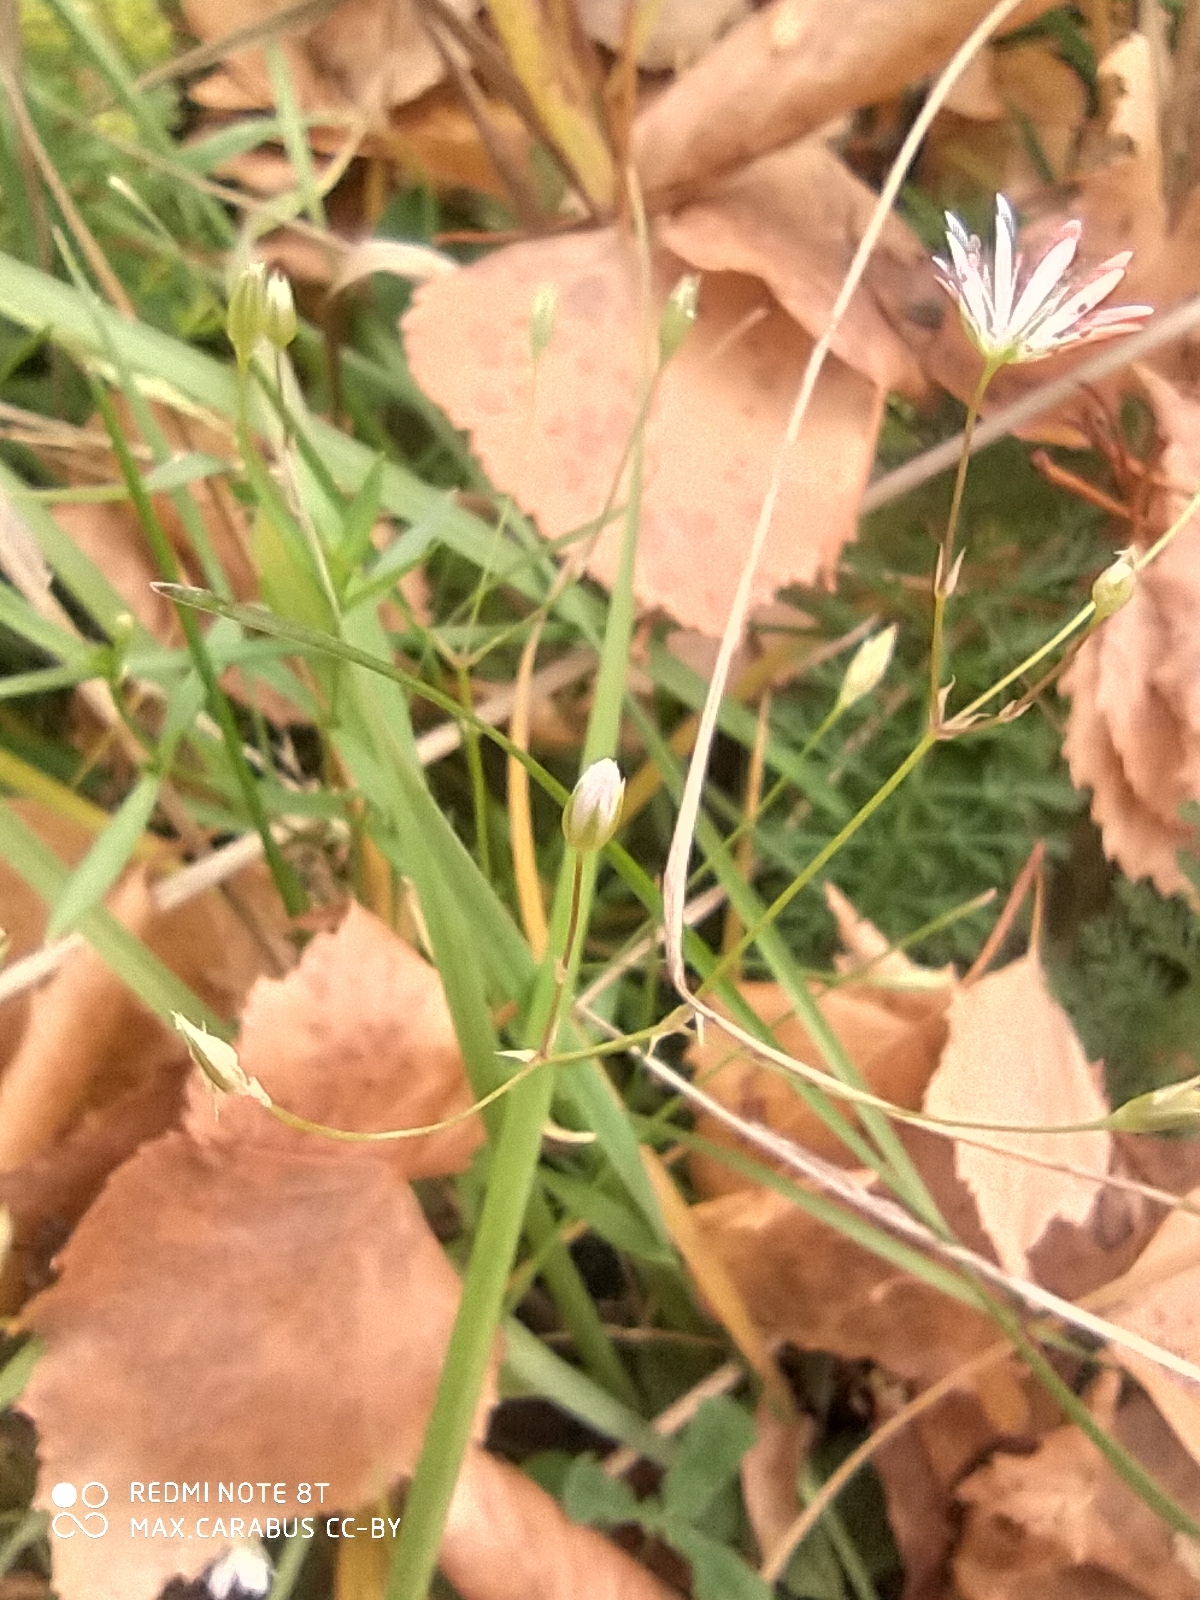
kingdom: Plantae
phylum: Tracheophyta
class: Magnoliopsida
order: Caryophyllales
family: Caryophyllaceae
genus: Stellaria
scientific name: Stellaria graminea
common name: Grass-like starwort
